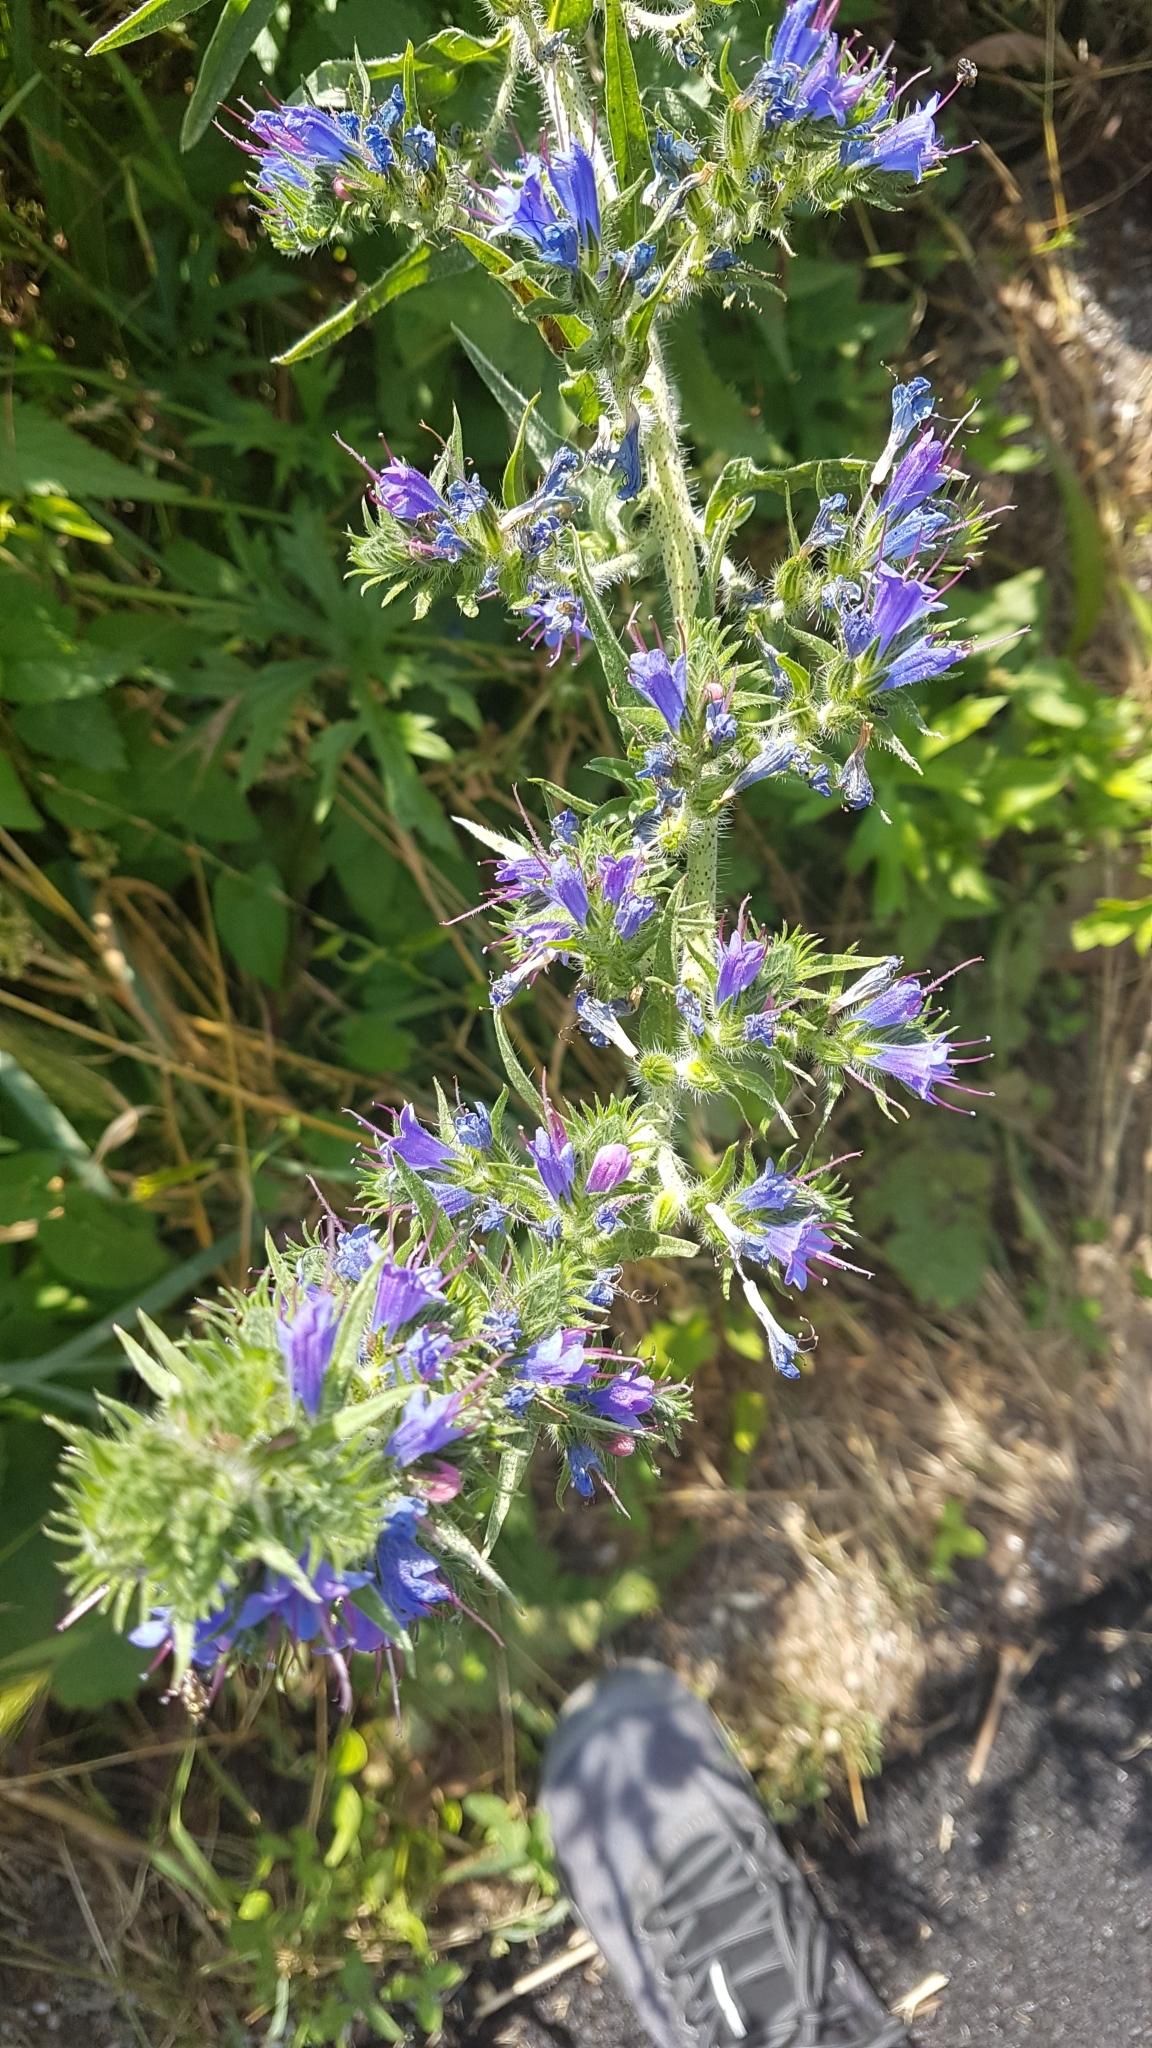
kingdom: Plantae
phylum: Tracheophyta
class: Magnoliopsida
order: Boraginales
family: Boraginaceae
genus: Echium
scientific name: Echium vulgare
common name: Common viper's bugloss
